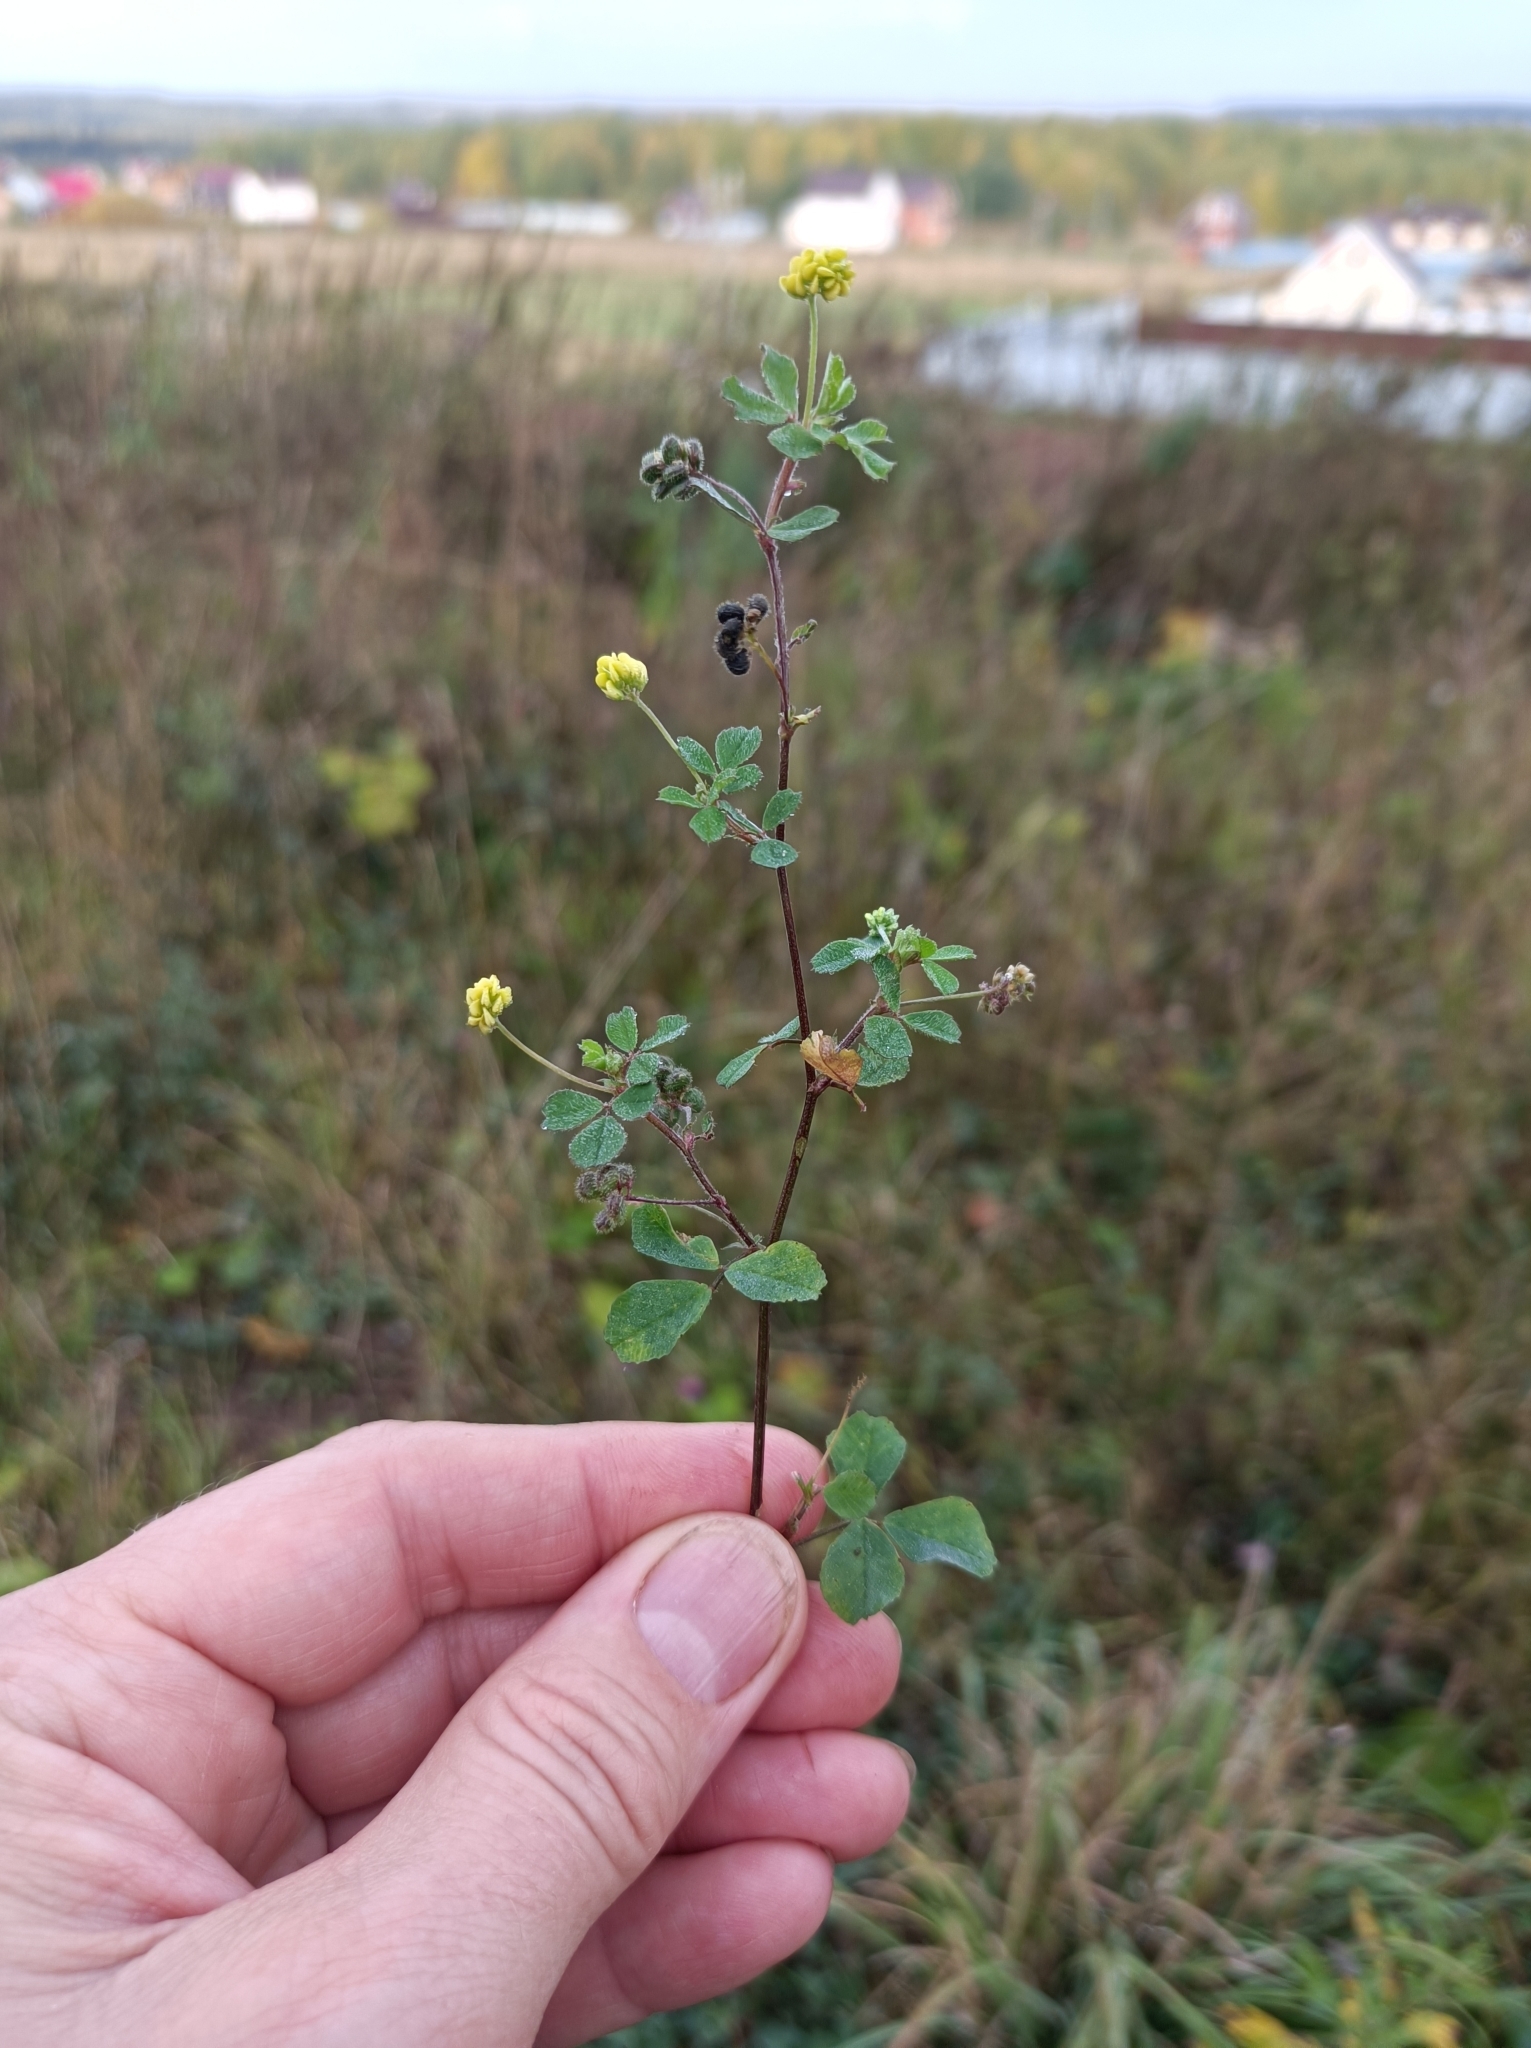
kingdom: Plantae
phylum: Tracheophyta
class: Magnoliopsida
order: Fabales
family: Fabaceae
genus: Medicago
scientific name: Medicago lupulina
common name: Black medick
